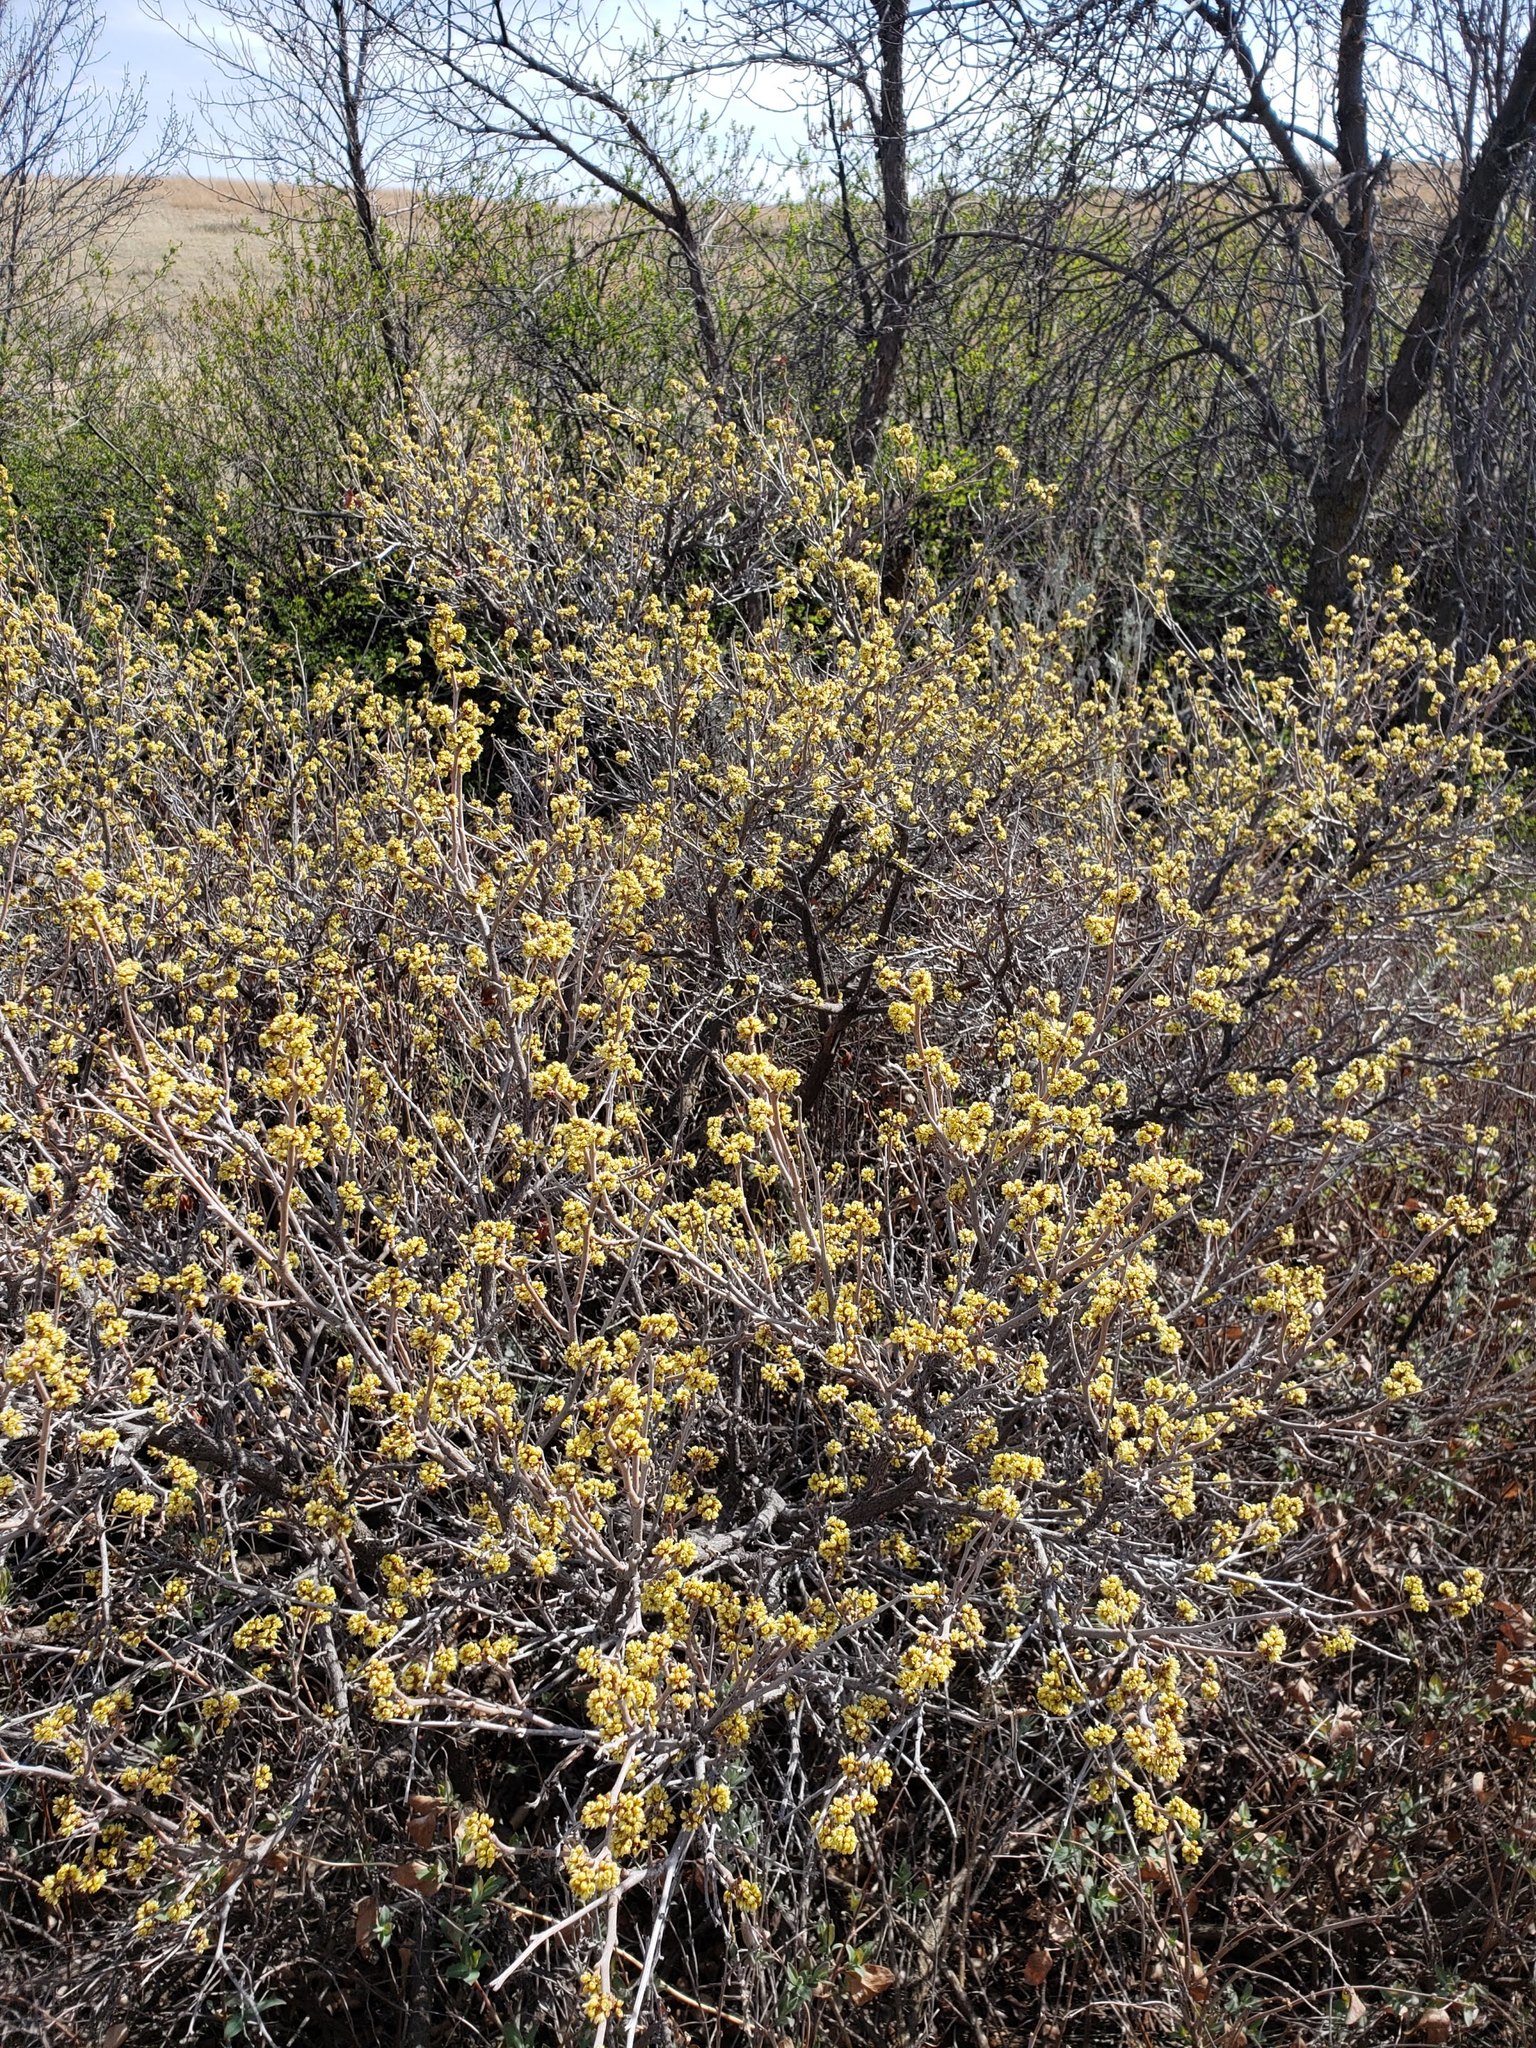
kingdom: Plantae
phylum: Tracheophyta
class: Magnoliopsida
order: Sapindales
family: Anacardiaceae
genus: Rhus
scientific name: Rhus aromatica
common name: Aromatic sumac
